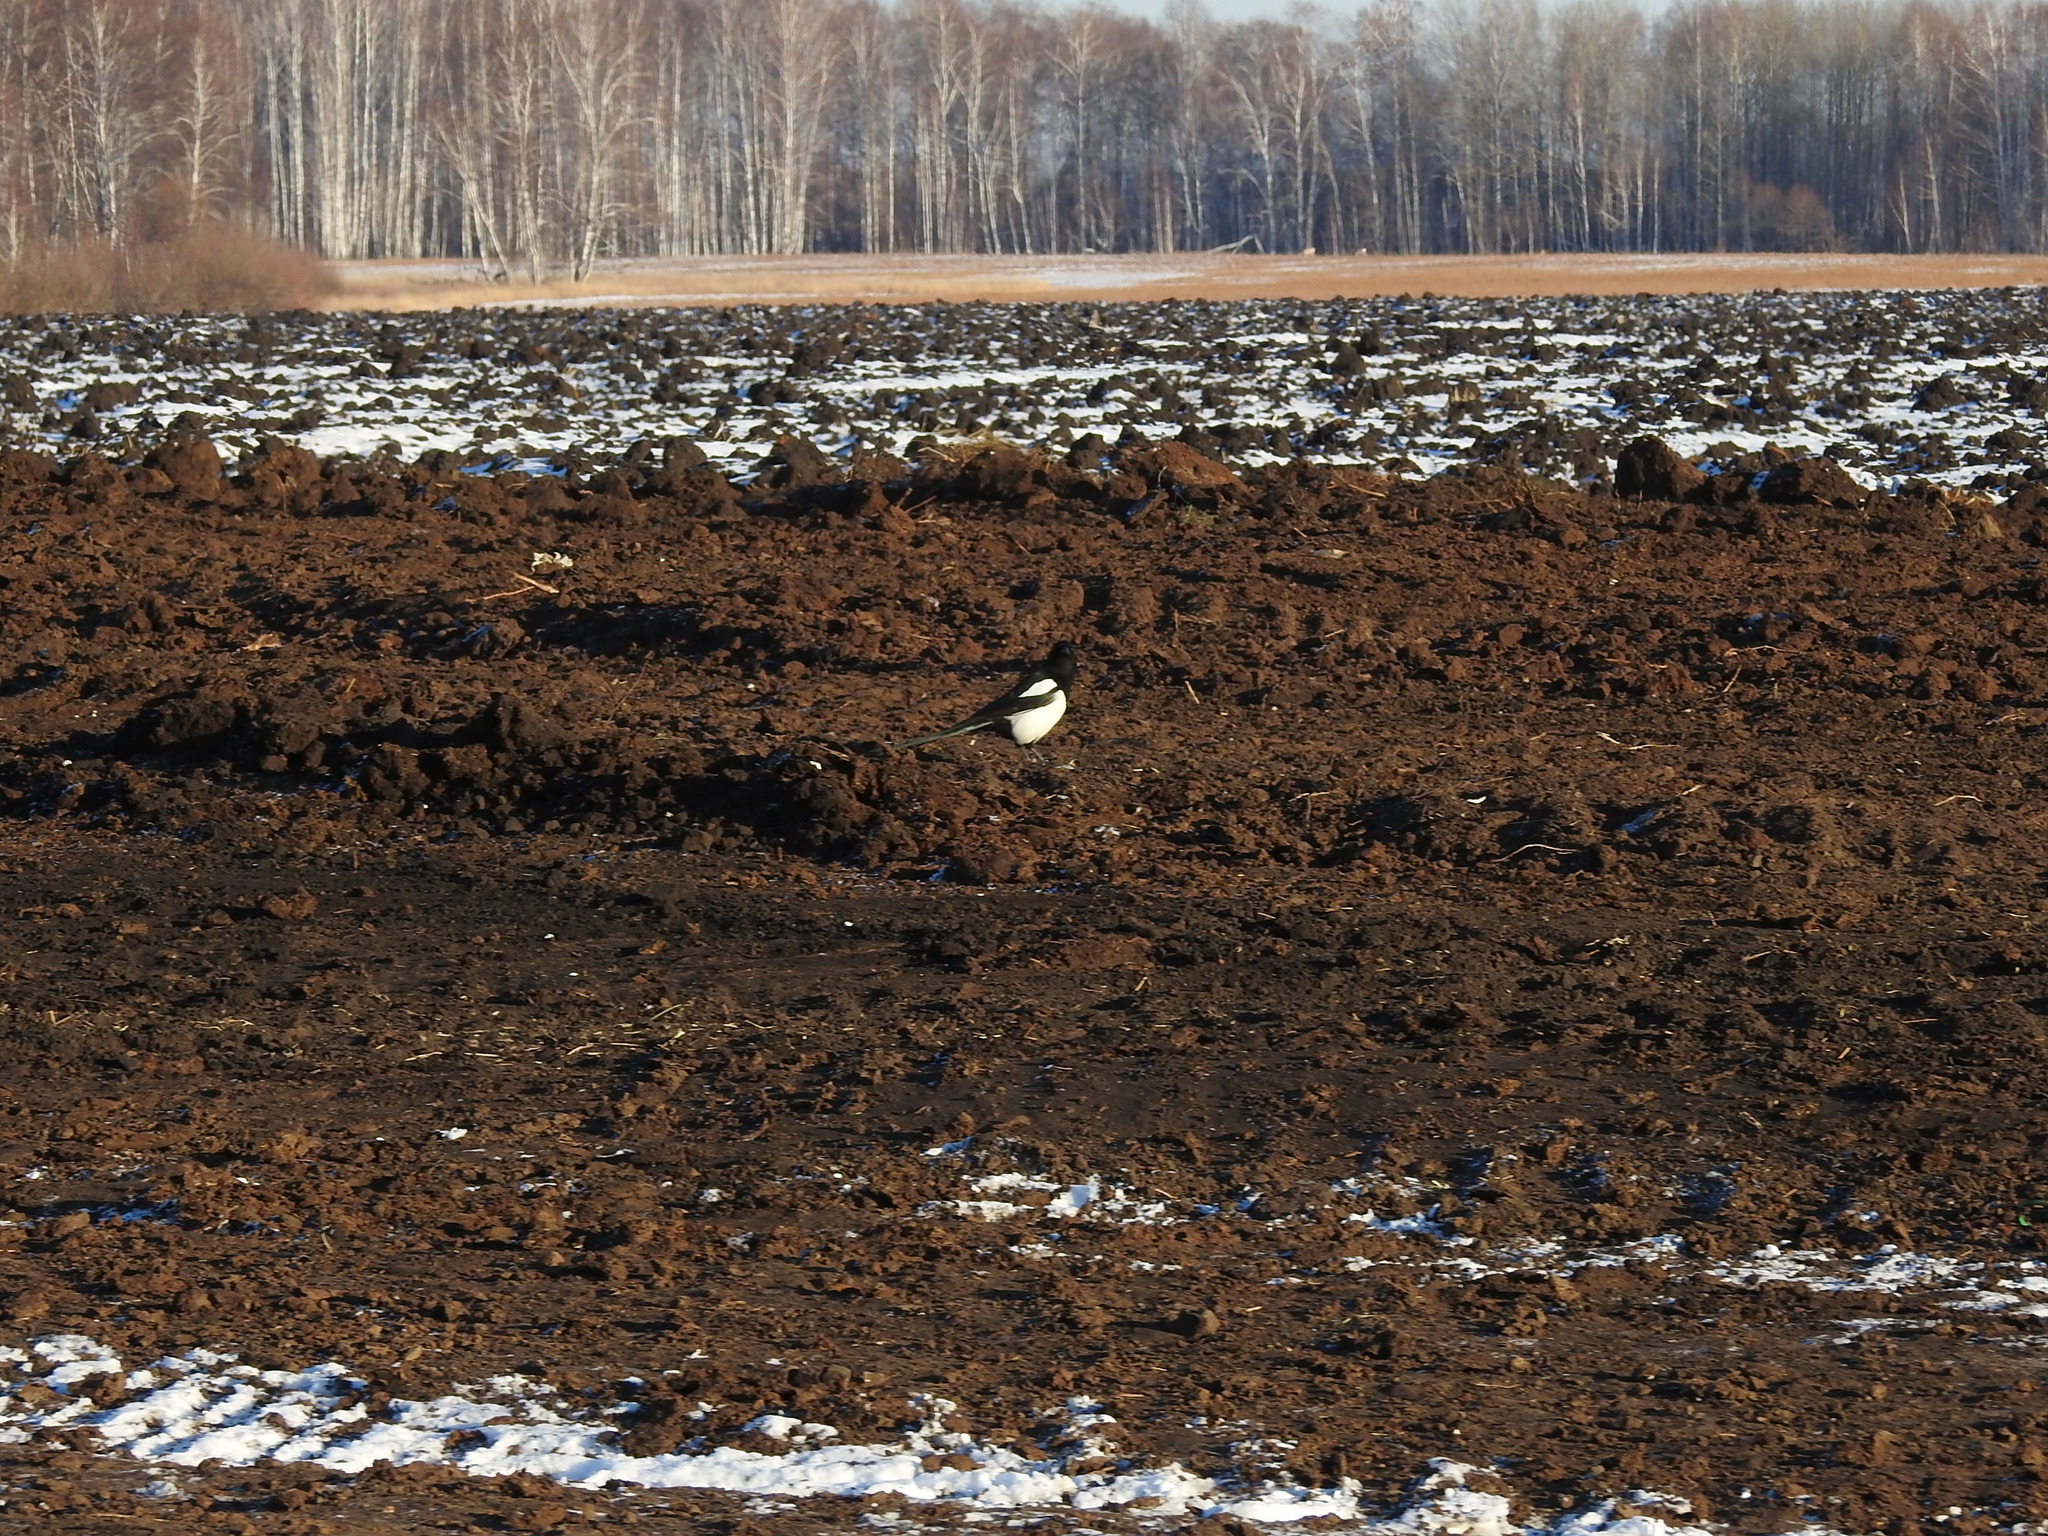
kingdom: Animalia
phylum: Chordata
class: Aves
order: Passeriformes
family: Corvidae
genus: Pica
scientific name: Pica pica
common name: Eurasian magpie
